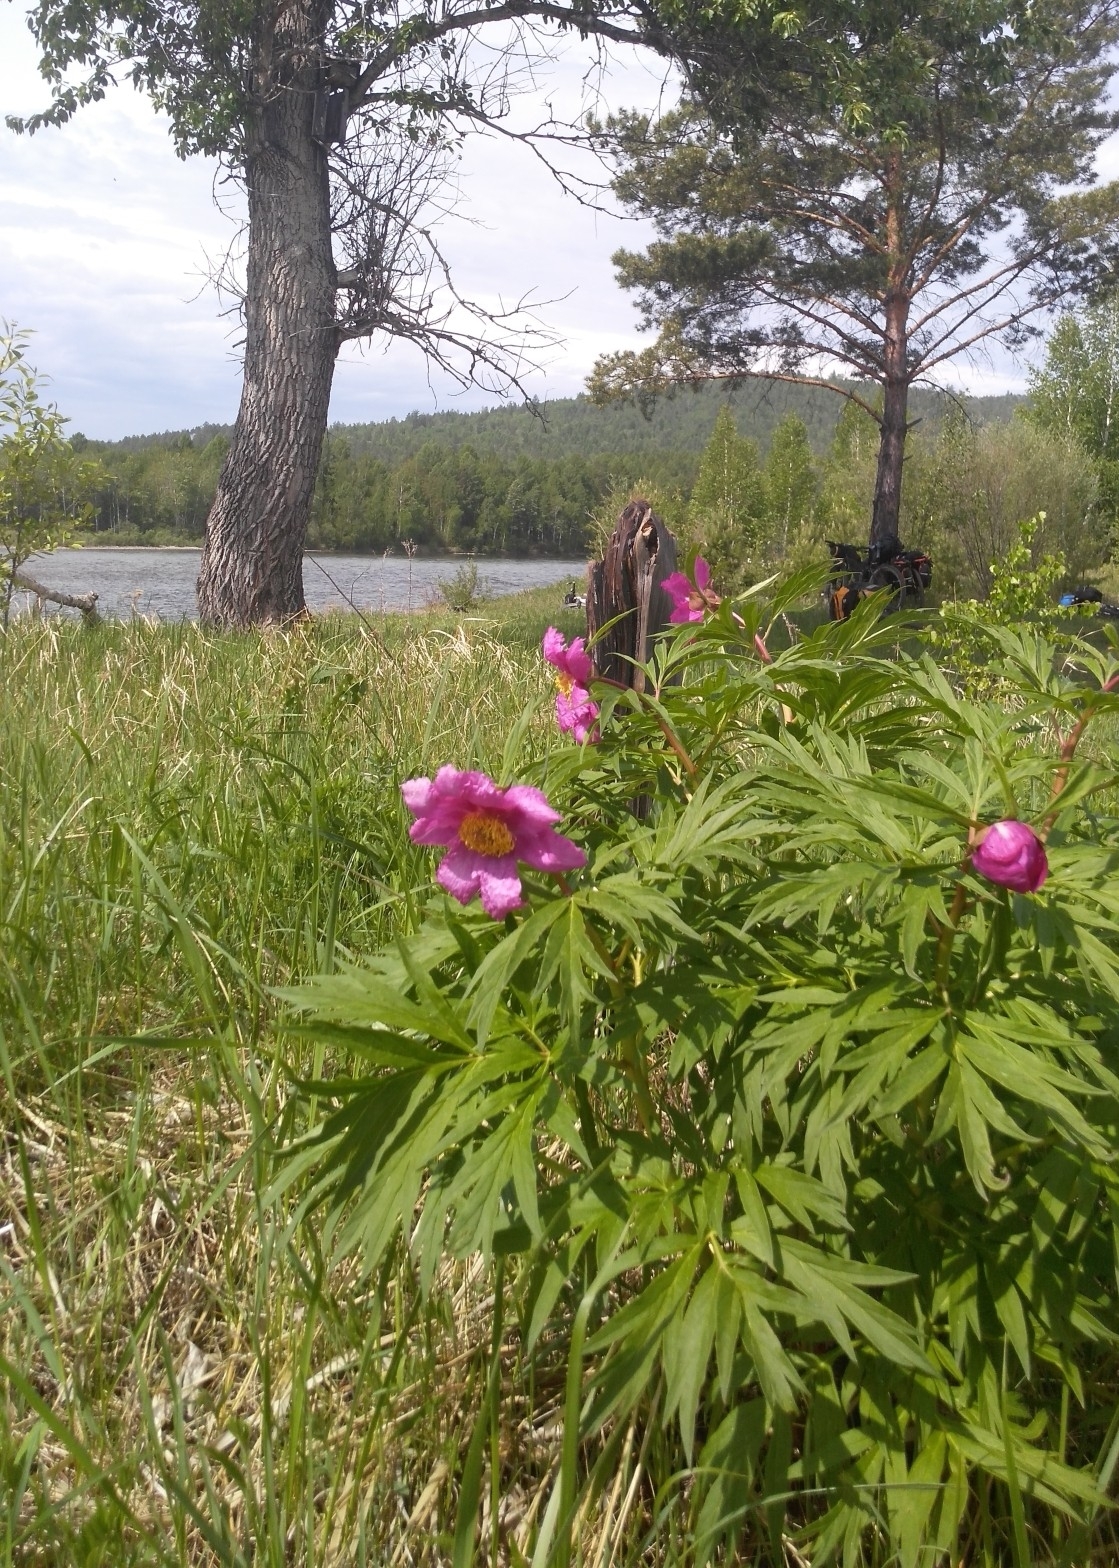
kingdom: Plantae
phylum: Tracheophyta
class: Magnoliopsida
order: Saxifragales
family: Paeoniaceae
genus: Paeonia
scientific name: Paeonia anomala
